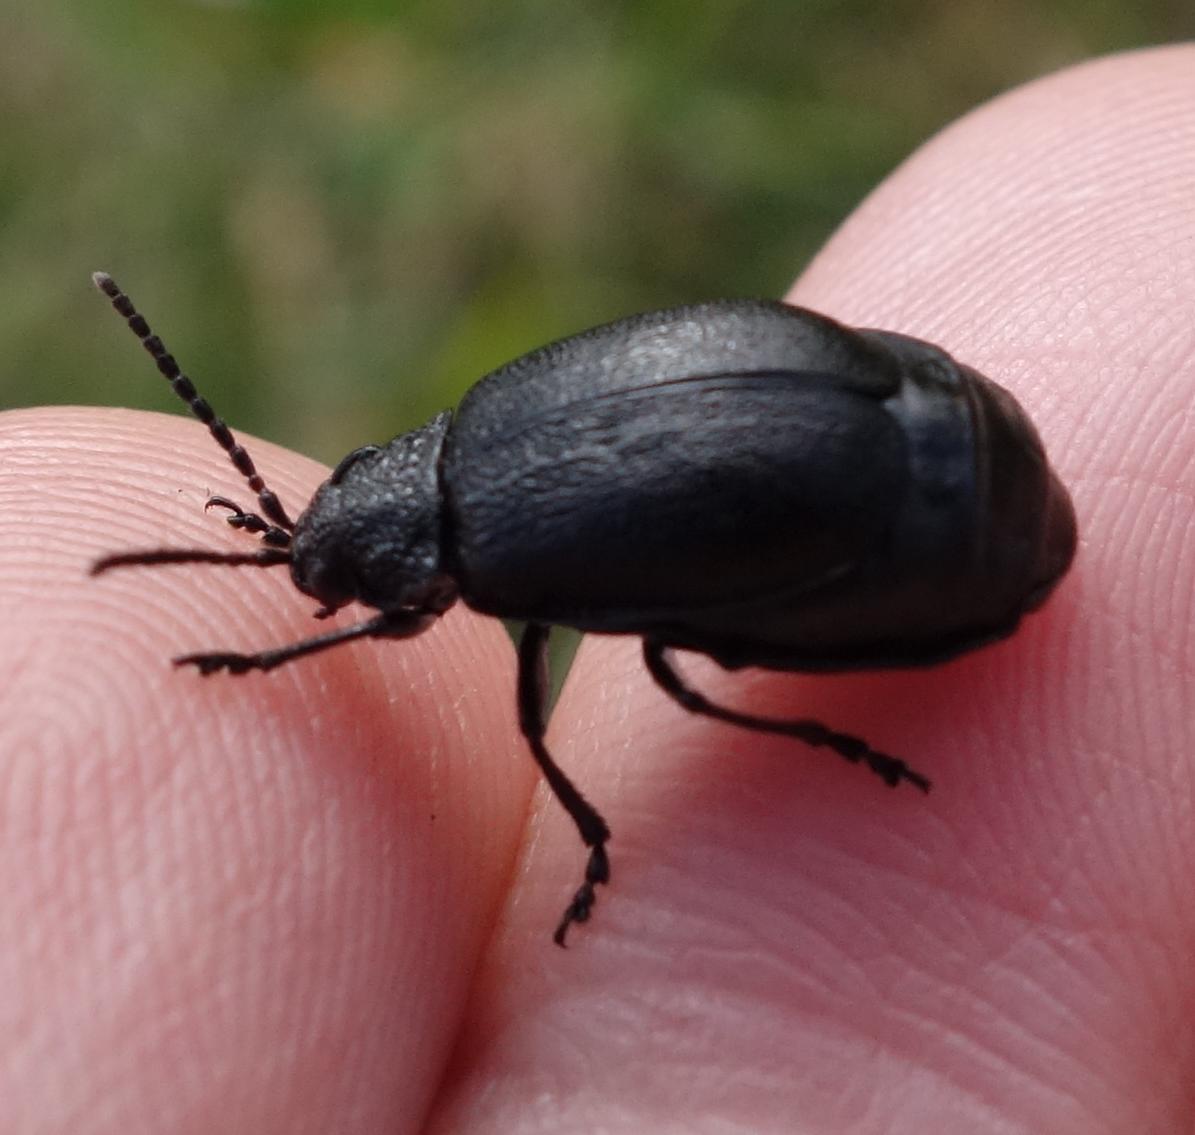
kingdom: Animalia
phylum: Arthropoda
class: Insecta
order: Coleoptera
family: Chrysomelidae
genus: Galeruca
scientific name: Galeruca tanaceti
